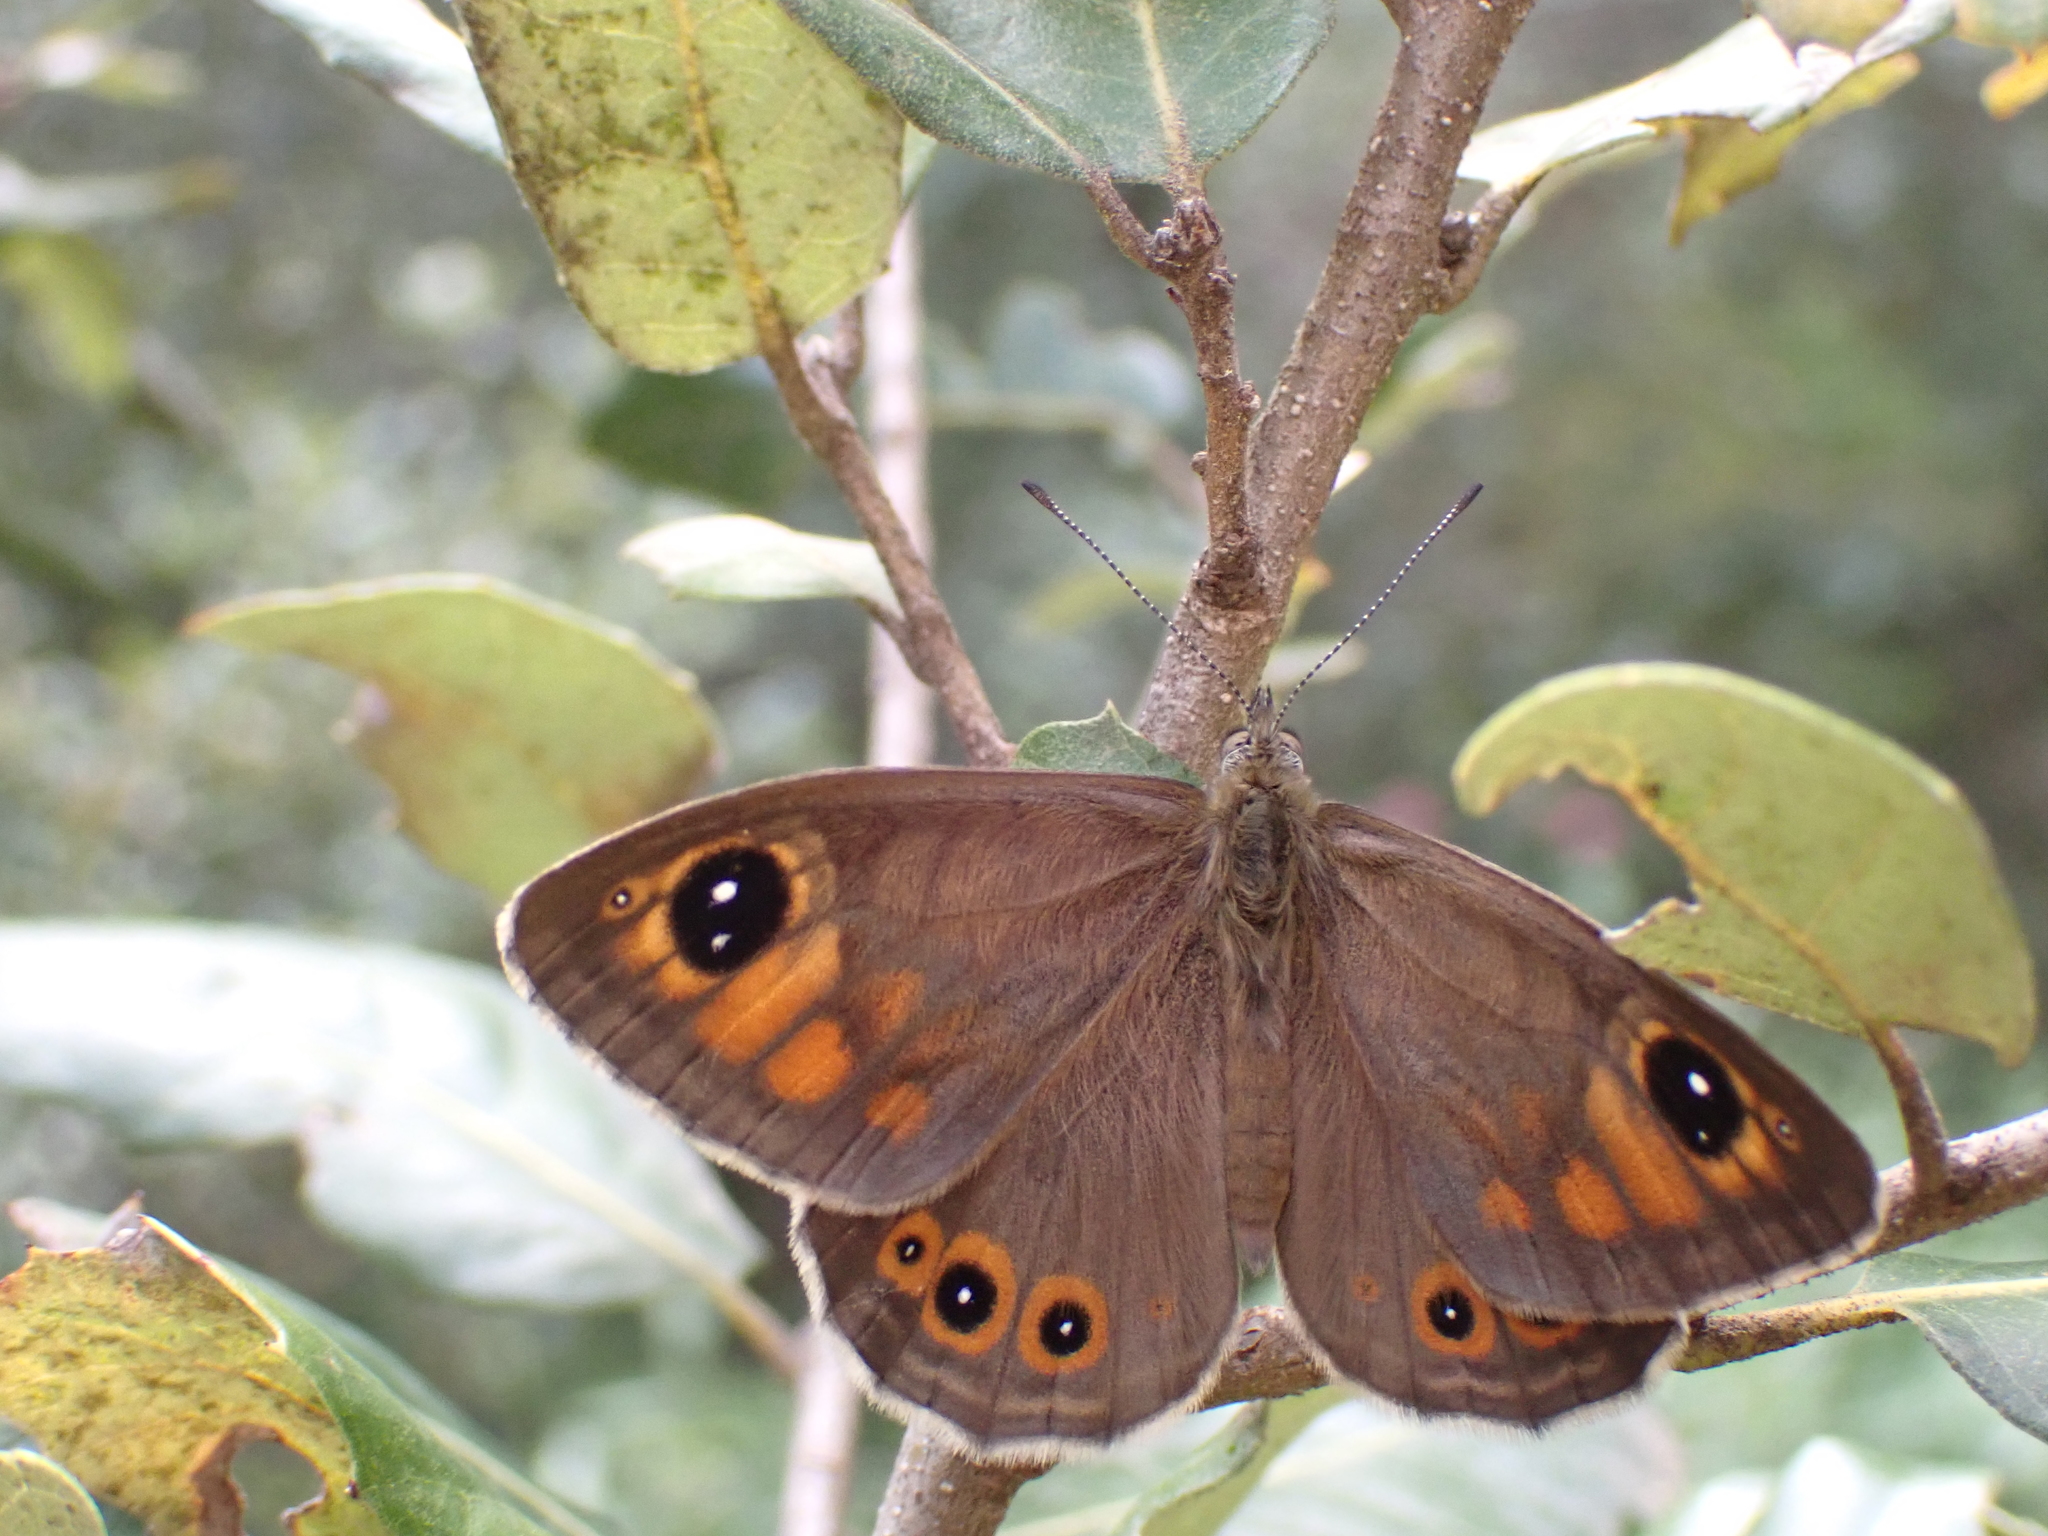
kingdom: Animalia
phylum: Arthropoda
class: Insecta
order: Lepidoptera
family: Nymphalidae
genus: Pararge
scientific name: Pararge Lasiommata maera
